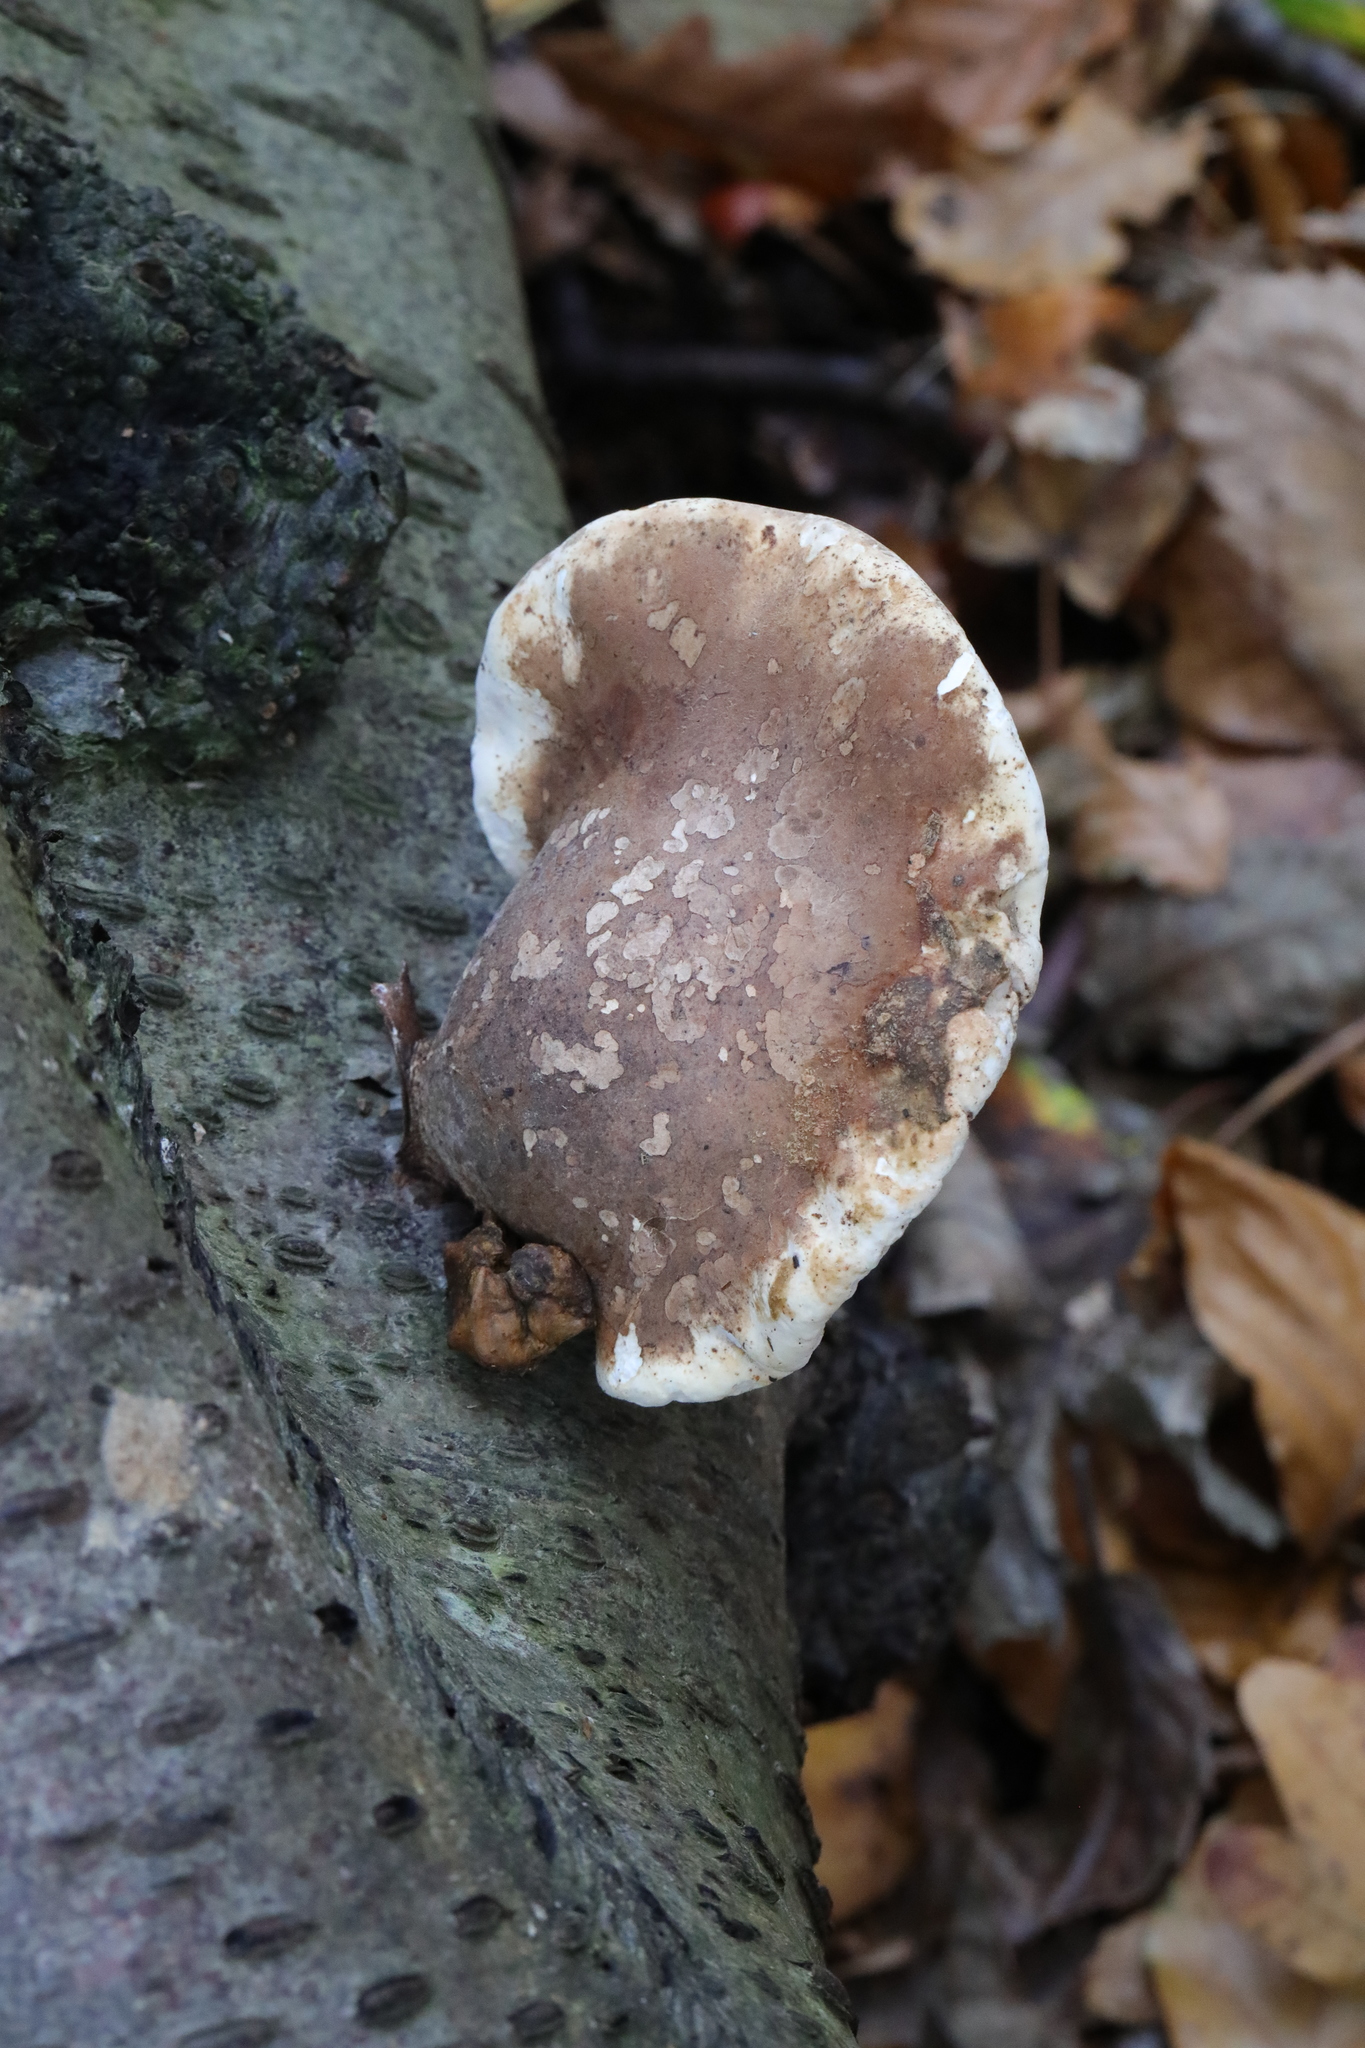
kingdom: Fungi
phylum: Basidiomycota
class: Agaricomycetes
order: Polyporales
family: Fomitopsidaceae
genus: Fomitopsis
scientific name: Fomitopsis betulina
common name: Birch polypore
